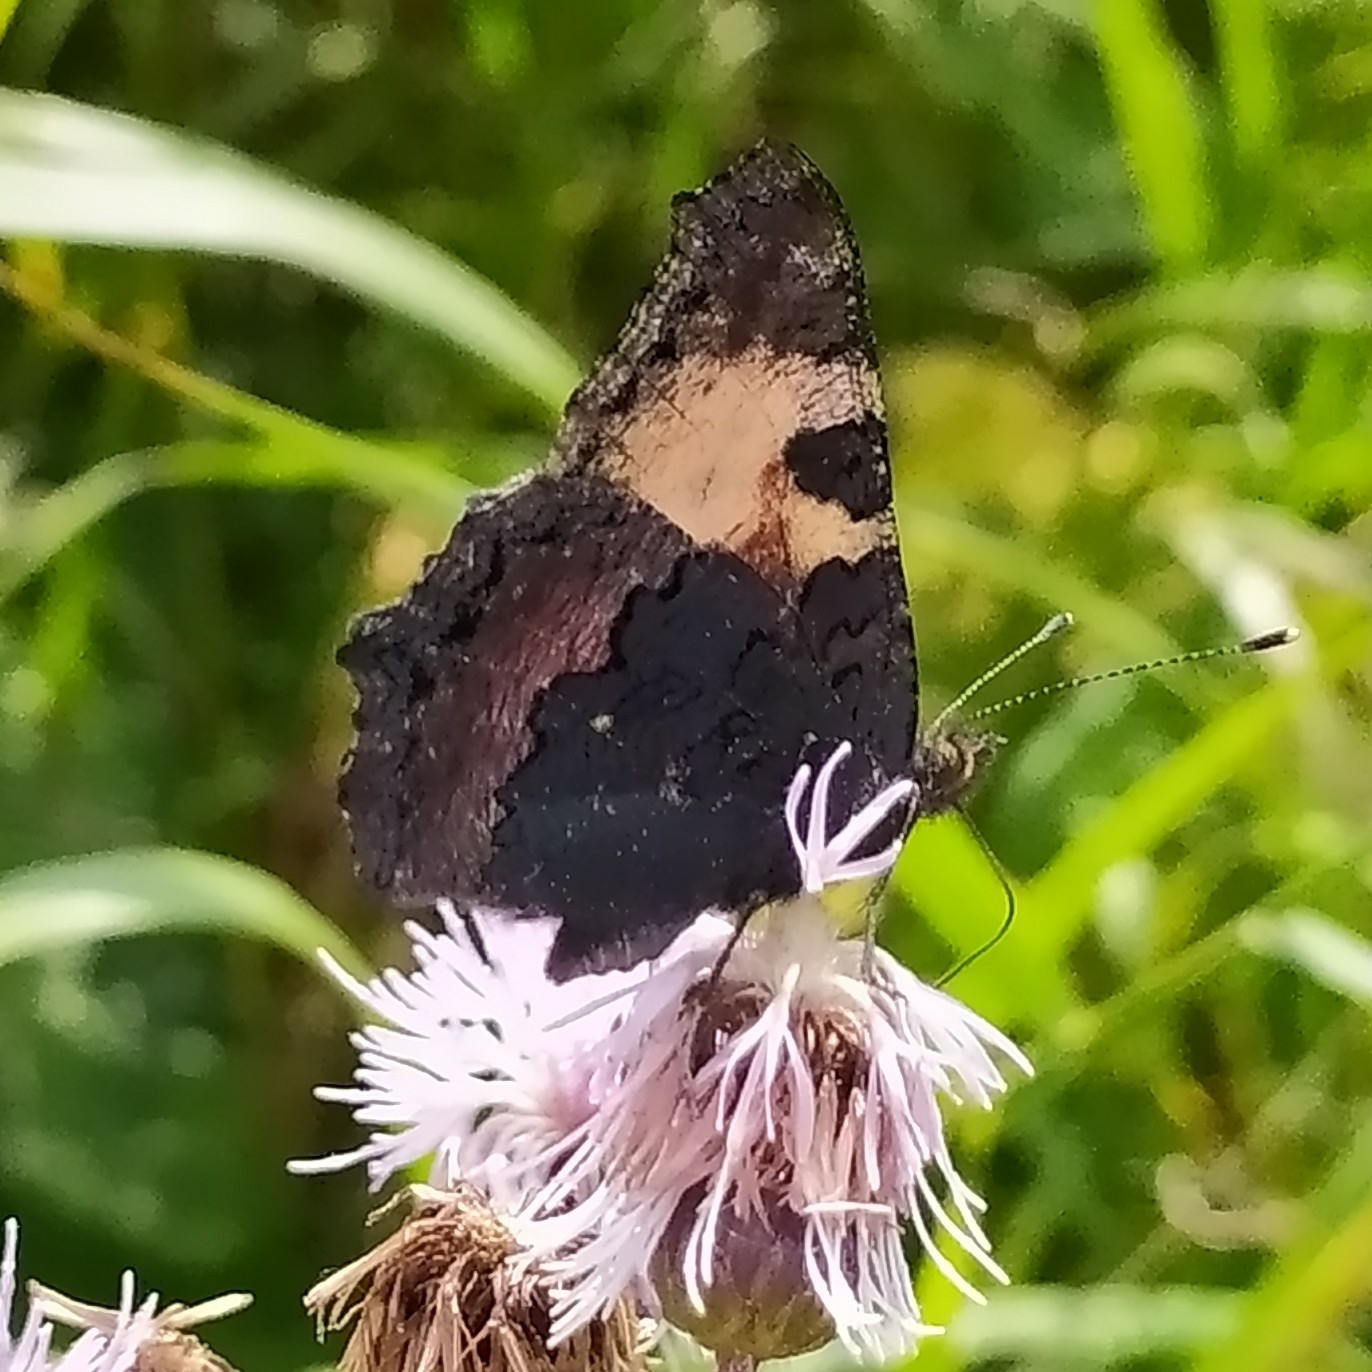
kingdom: Animalia
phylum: Arthropoda
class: Insecta
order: Lepidoptera
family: Nymphalidae
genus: Aglais
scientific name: Aglais urticae
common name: Small tortoiseshell
